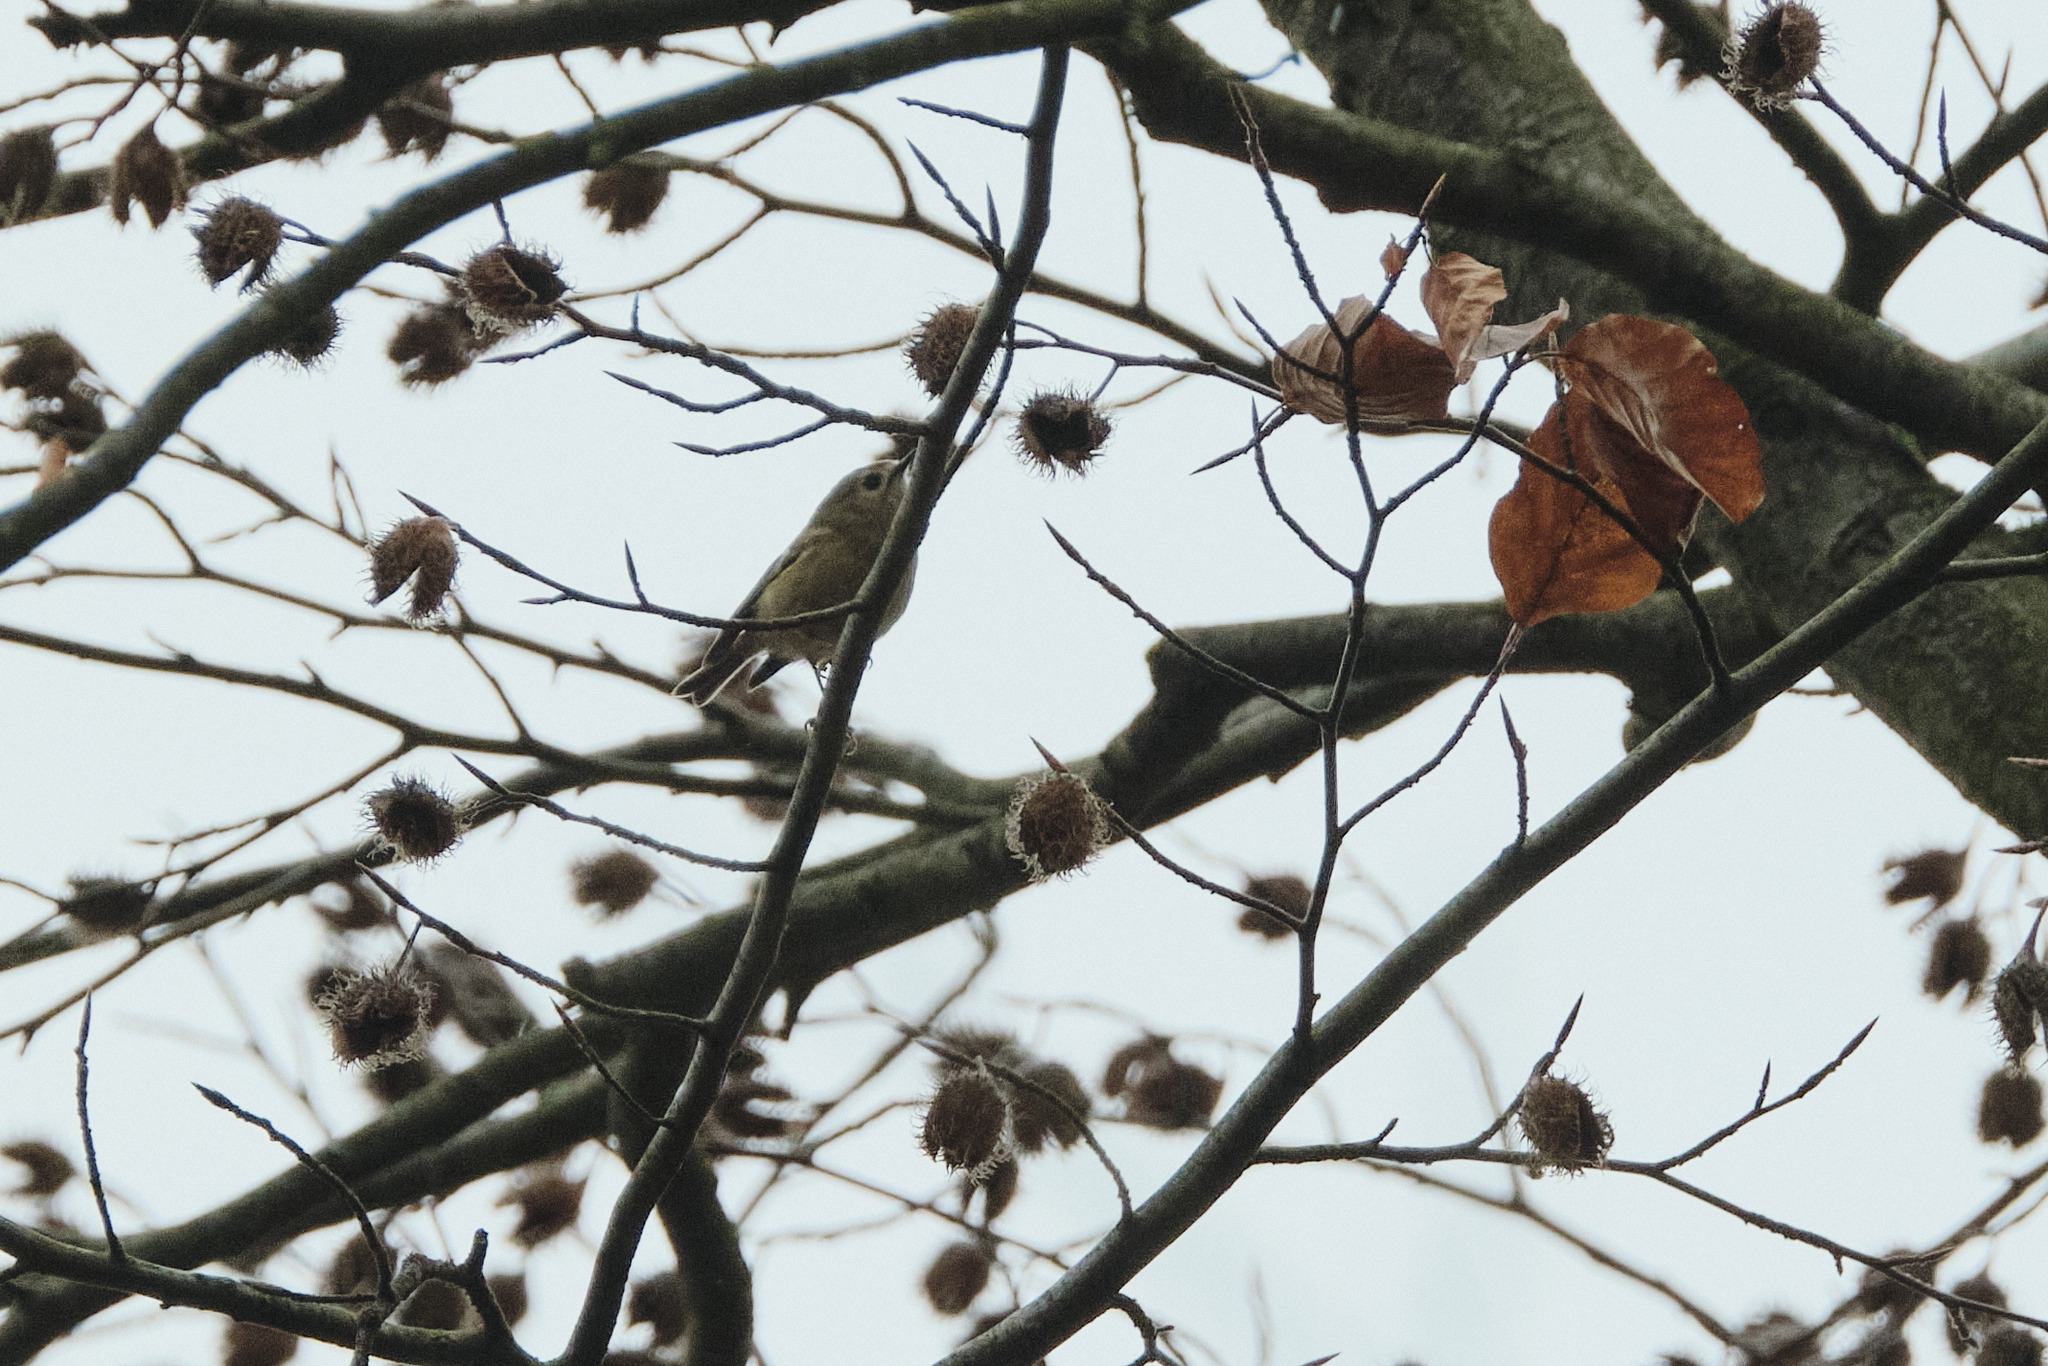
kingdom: Animalia
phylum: Chordata
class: Aves
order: Passeriformes
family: Regulidae
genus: Regulus
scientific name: Regulus regulus
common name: Goldcrest
